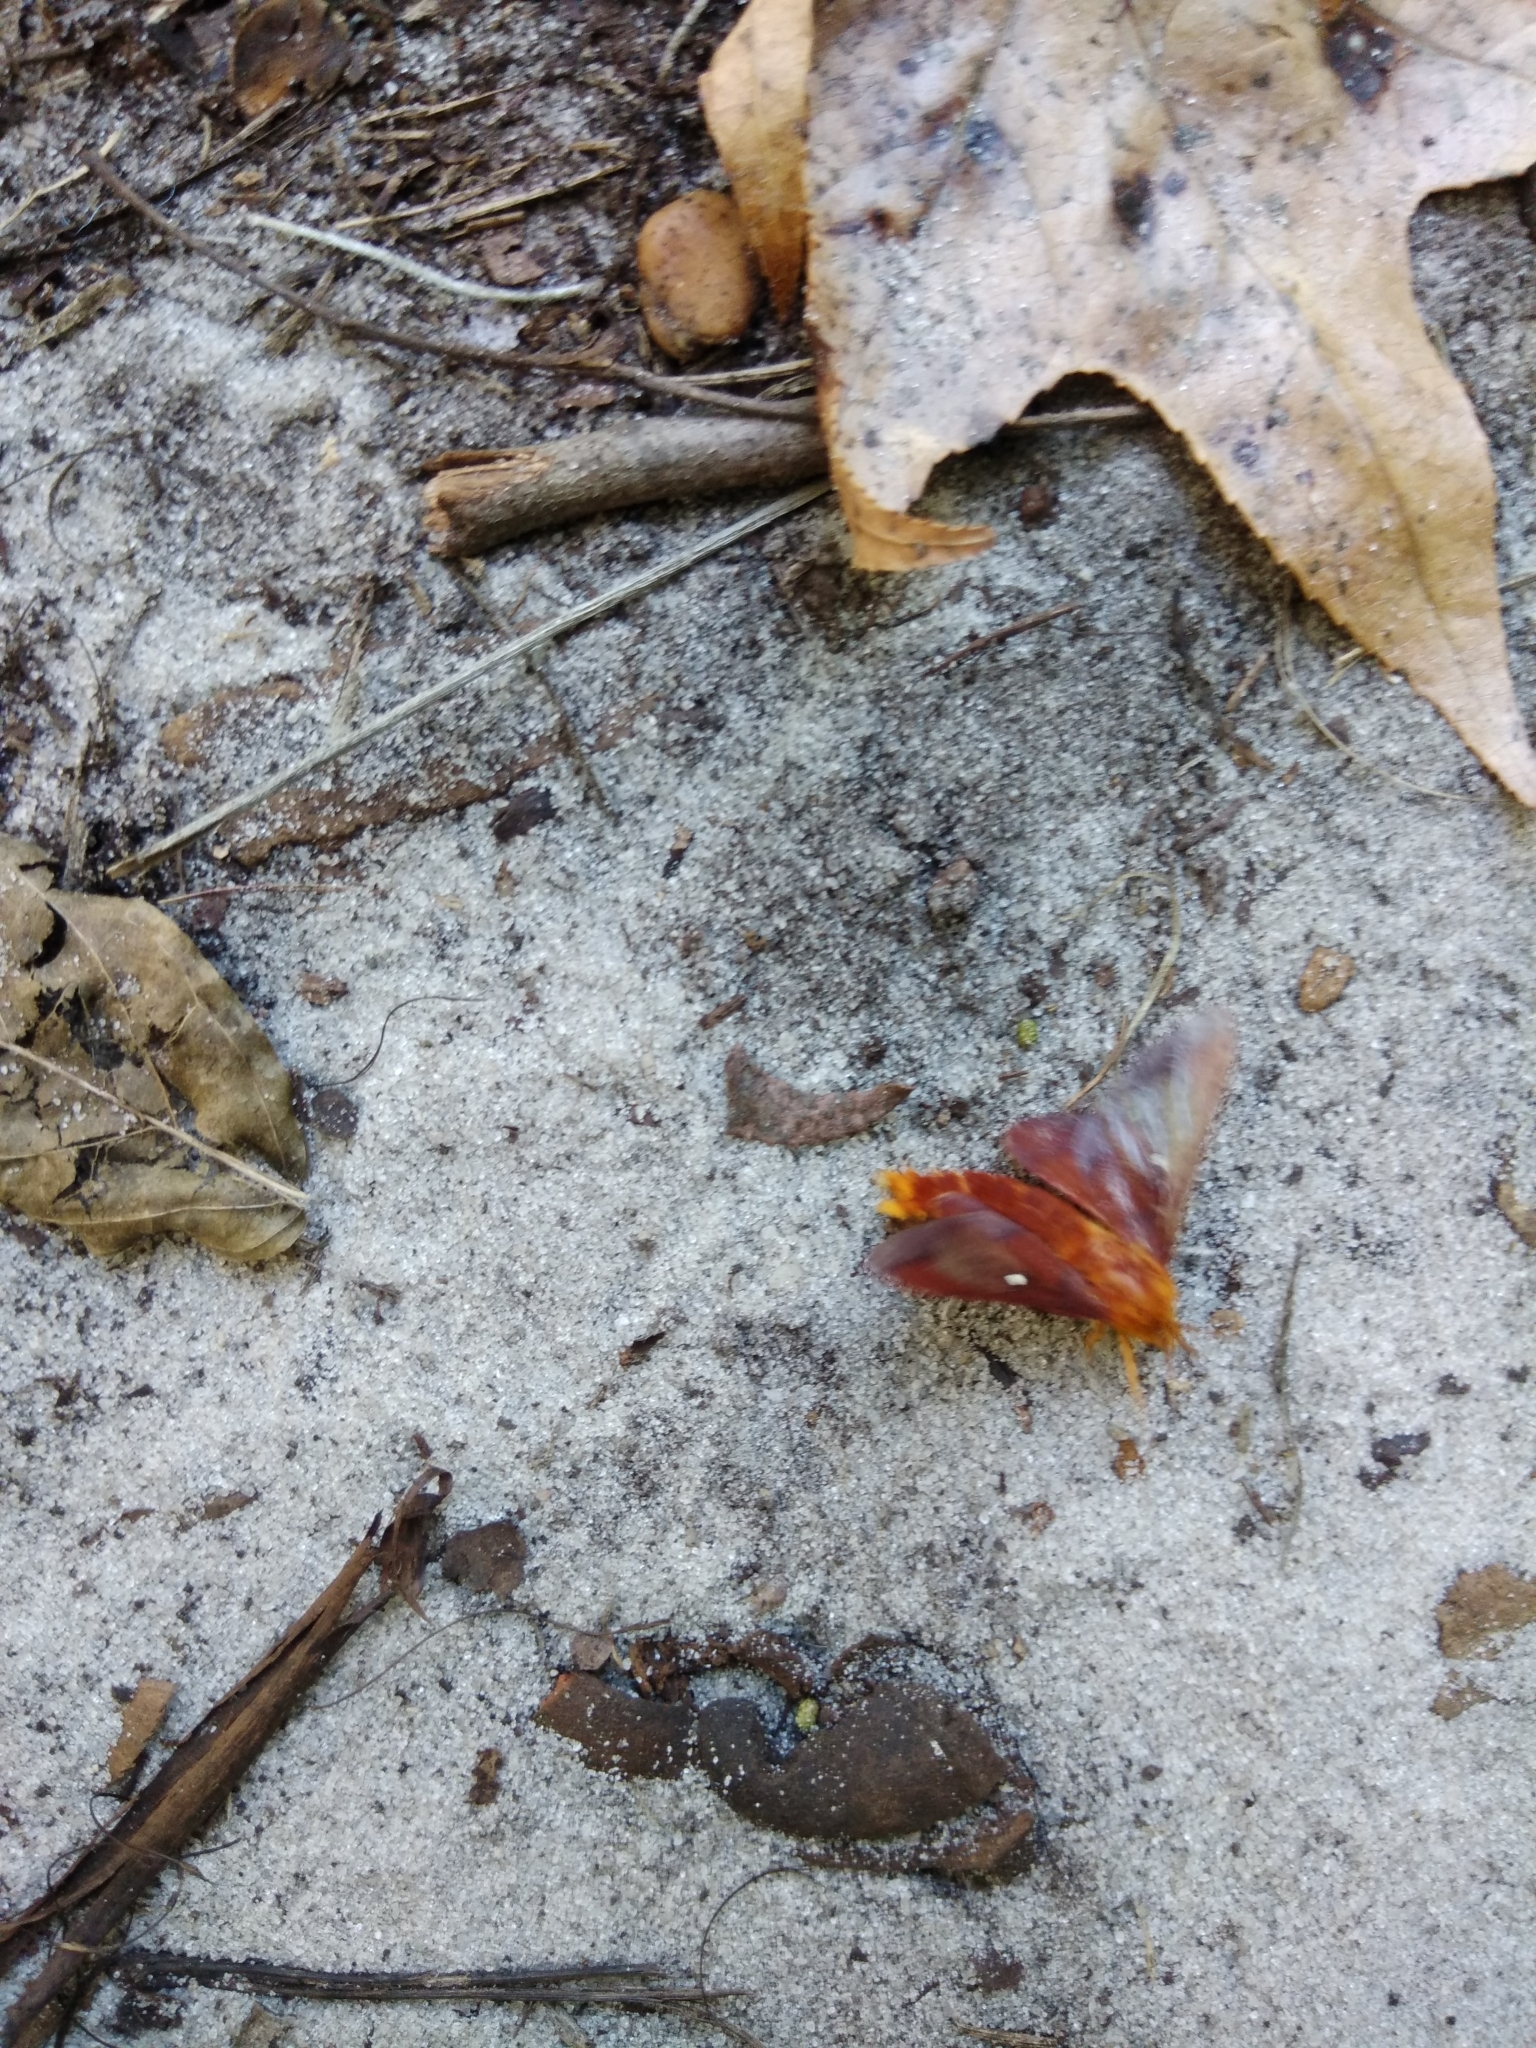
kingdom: Animalia
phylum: Arthropoda
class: Insecta
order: Lepidoptera
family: Saturniidae
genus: Anisota
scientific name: Anisota virginiensis
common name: Pink striped oakworm moth
